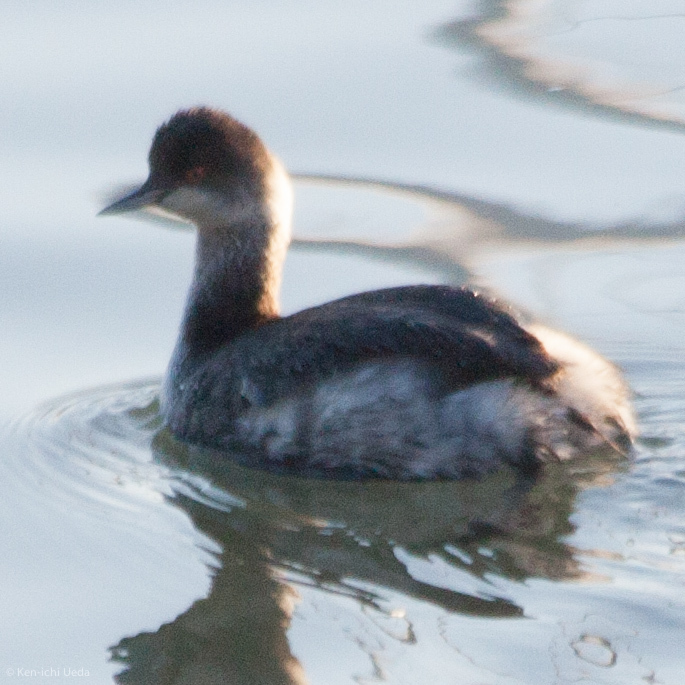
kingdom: Animalia
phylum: Chordata
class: Aves
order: Podicipediformes
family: Podicipedidae
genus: Podiceps
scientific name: Podiceps nigricollis
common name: Black-necked grebe
